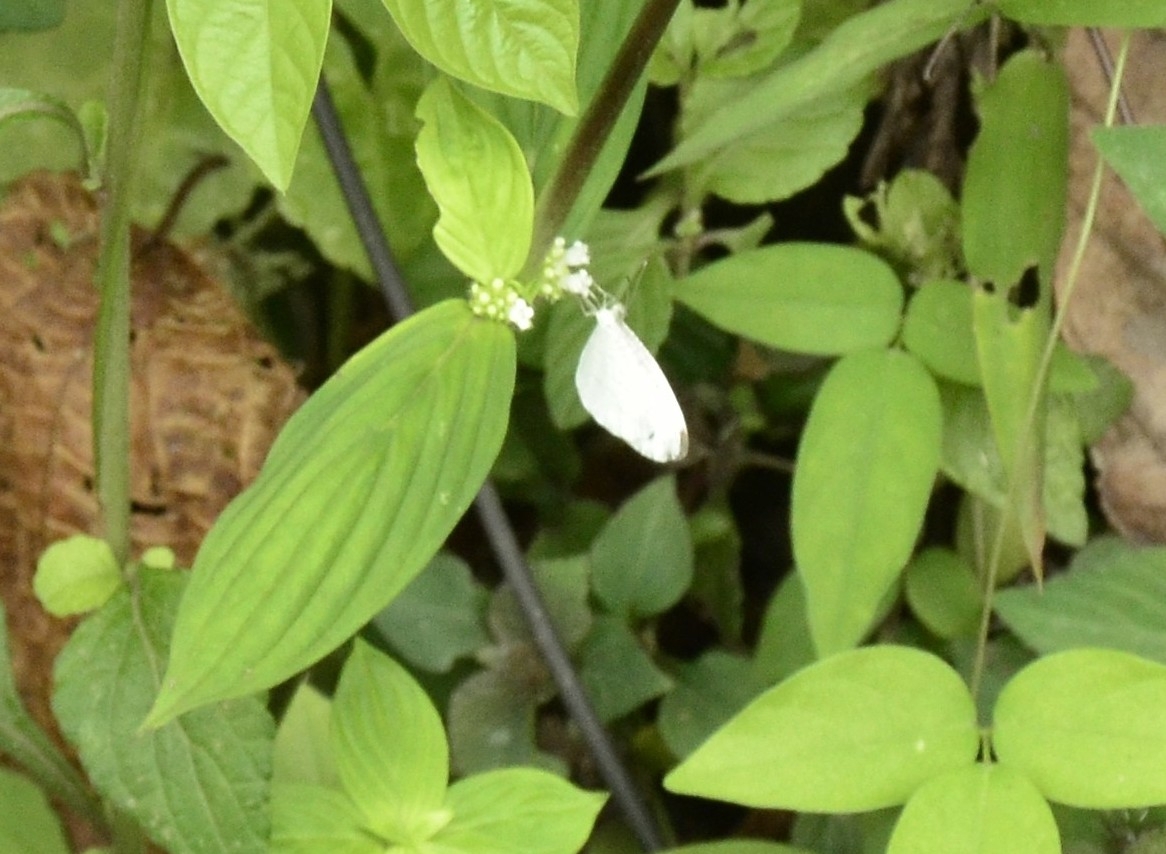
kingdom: Animalia
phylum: Arthropoda
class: Insecta
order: Lepidoptera
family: Pieridae
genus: Leptosia
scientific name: Leptosia nina
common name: Psyche
